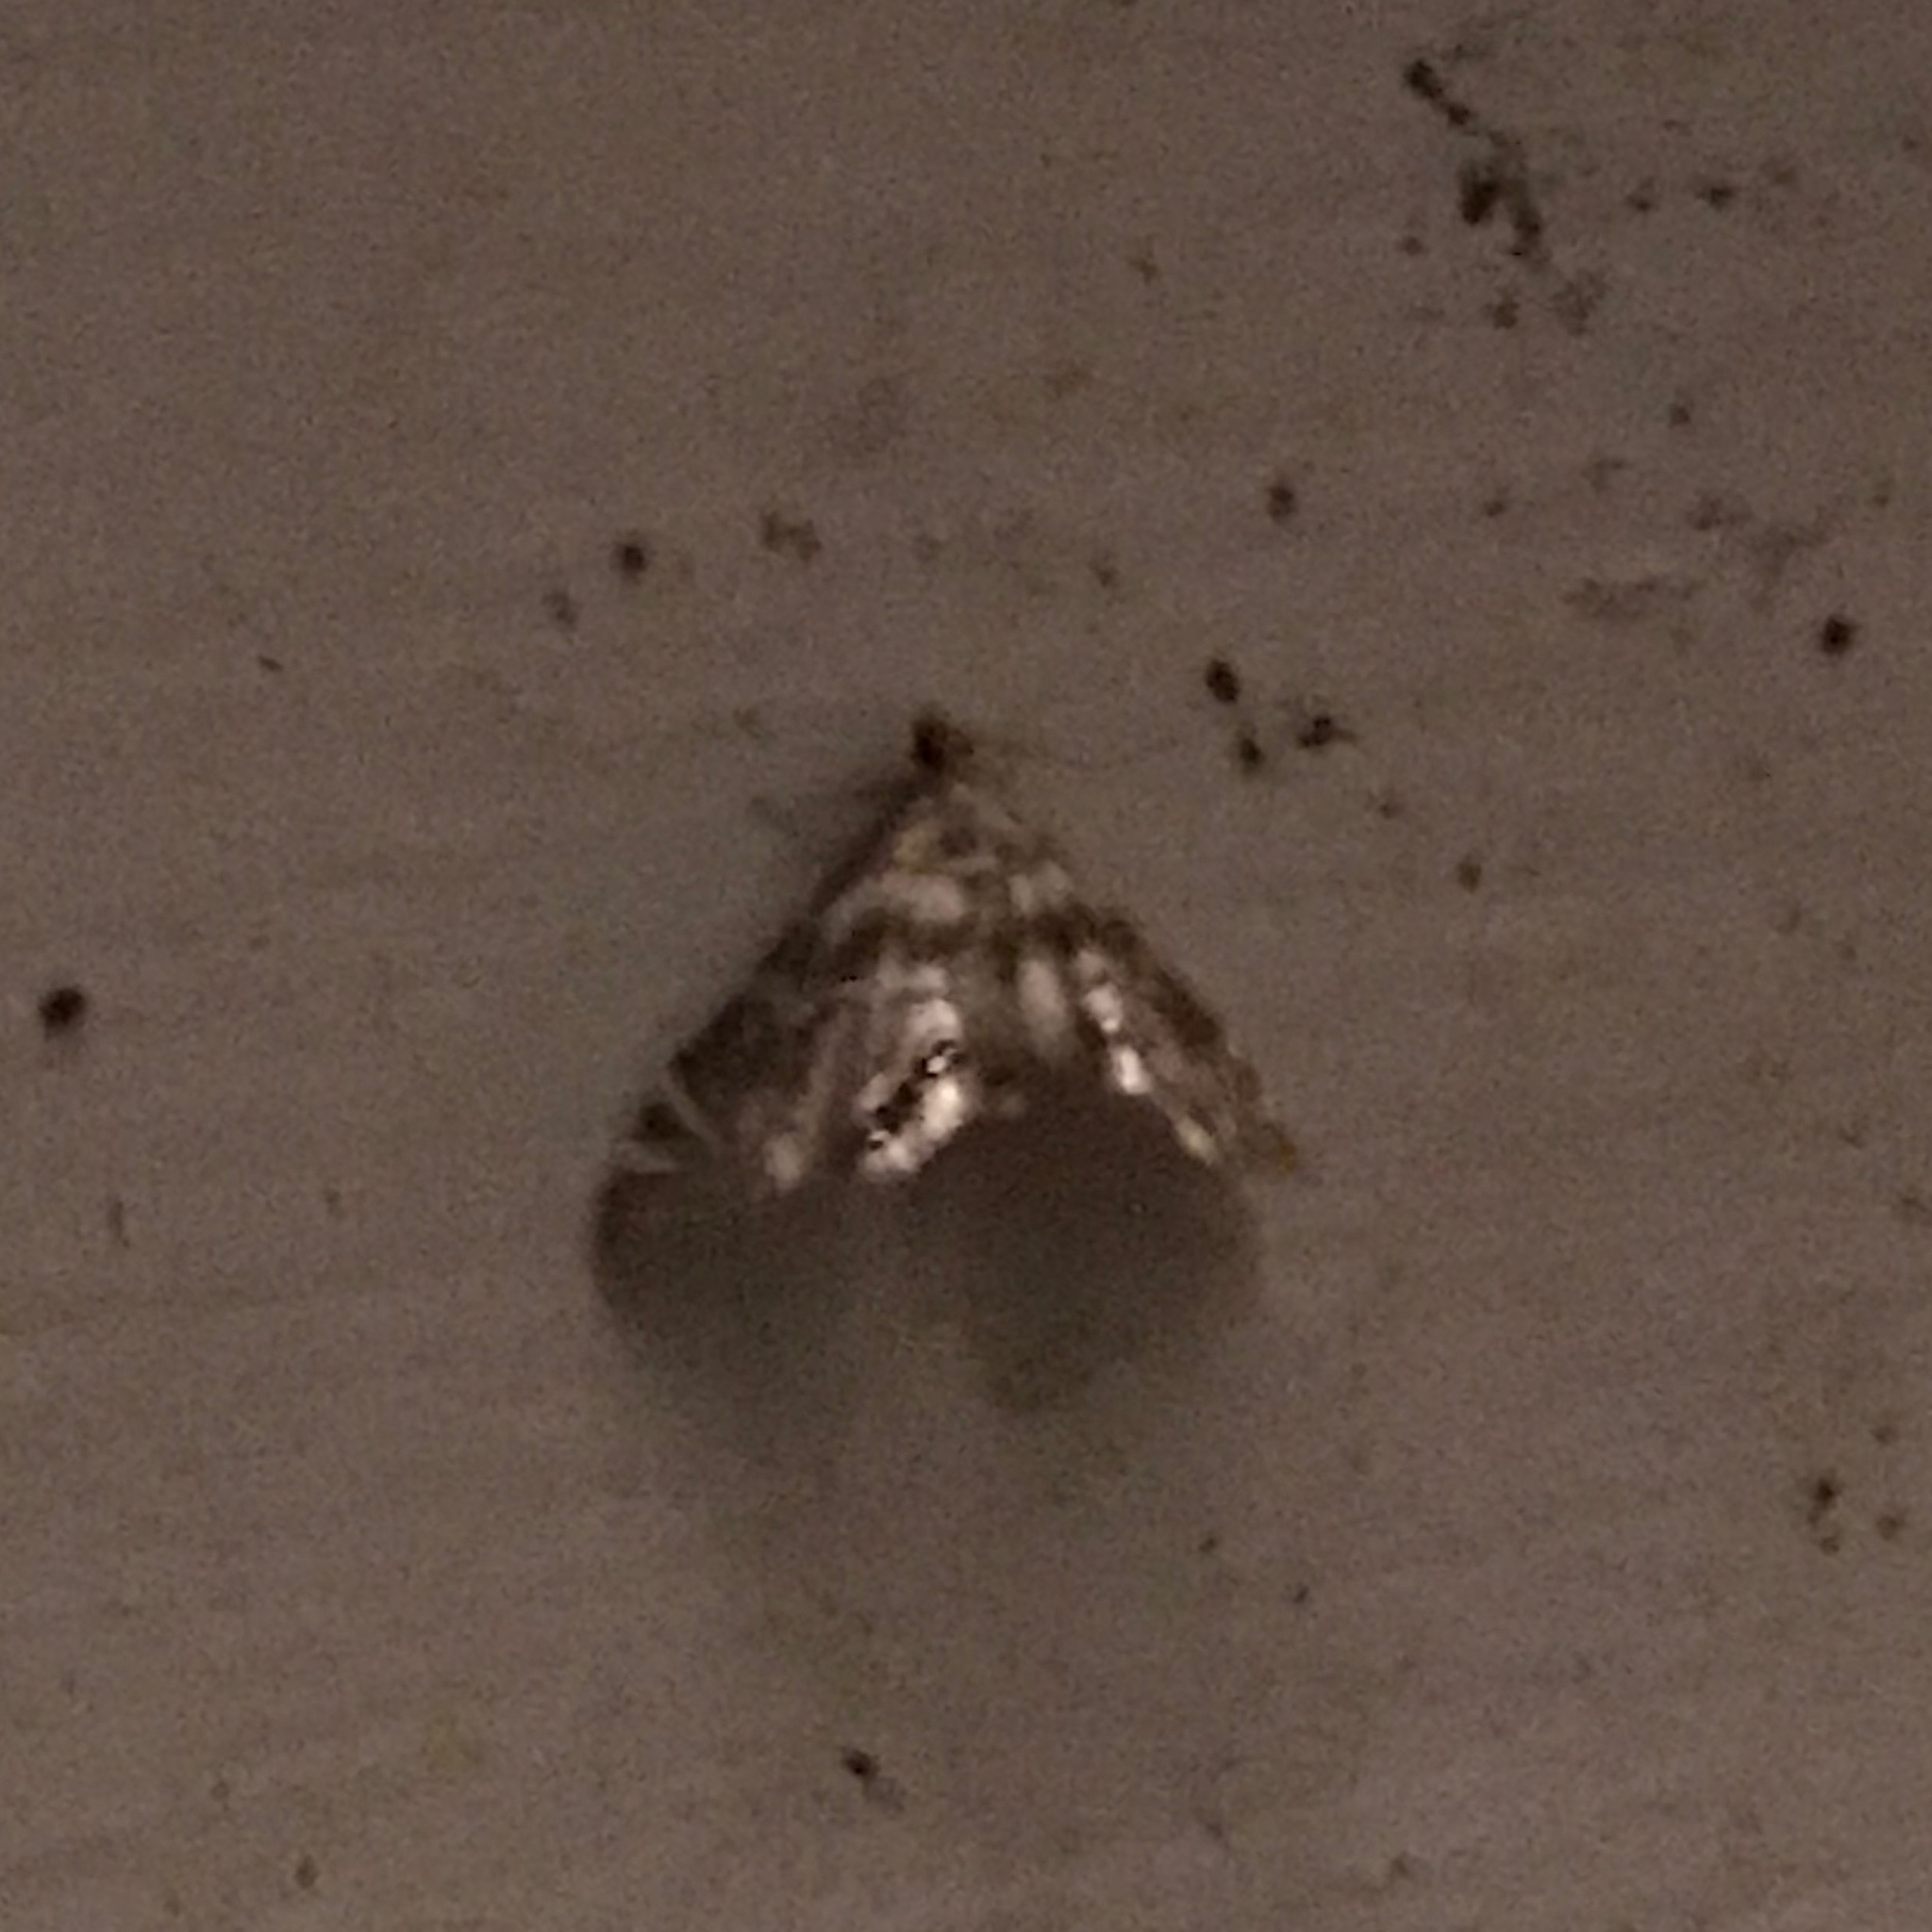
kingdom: Animalia
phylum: Arthropoda
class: Insecta
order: Lepidoptera
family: Crambidae
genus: Petrophila
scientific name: Petrophila canadensis
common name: Canadian petrophila
